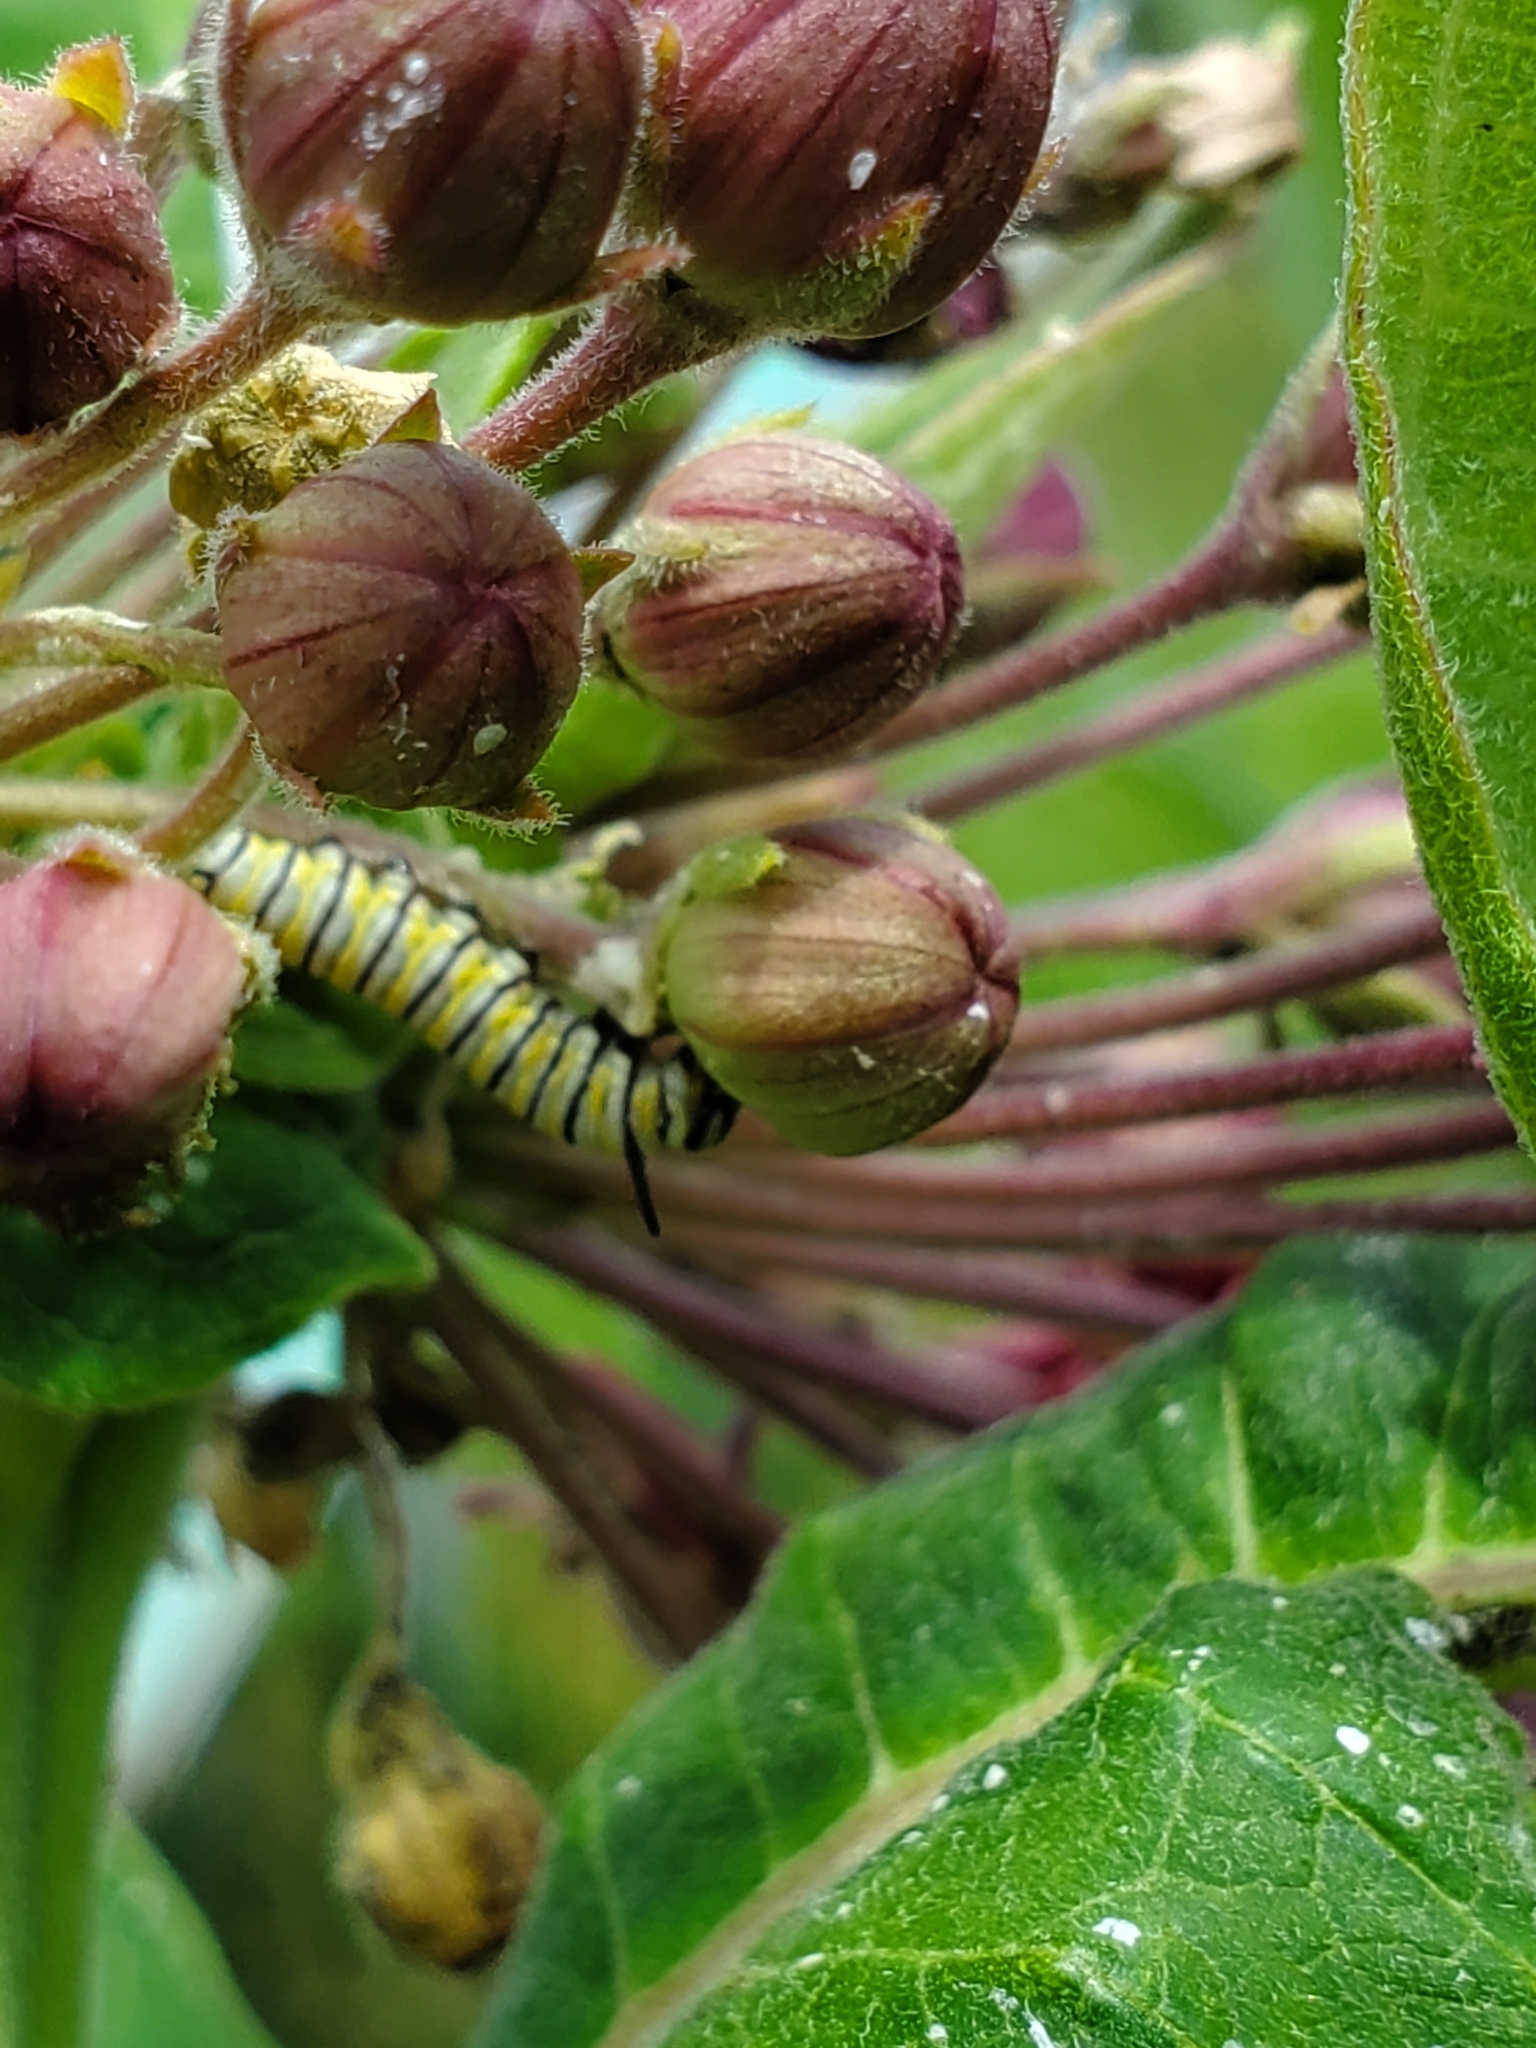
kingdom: Animalia
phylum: Arthropoda
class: Insecta
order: Lepidoptera
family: Nymphalidae
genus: Danaus
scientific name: Danaus plexippus
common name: Monarch
